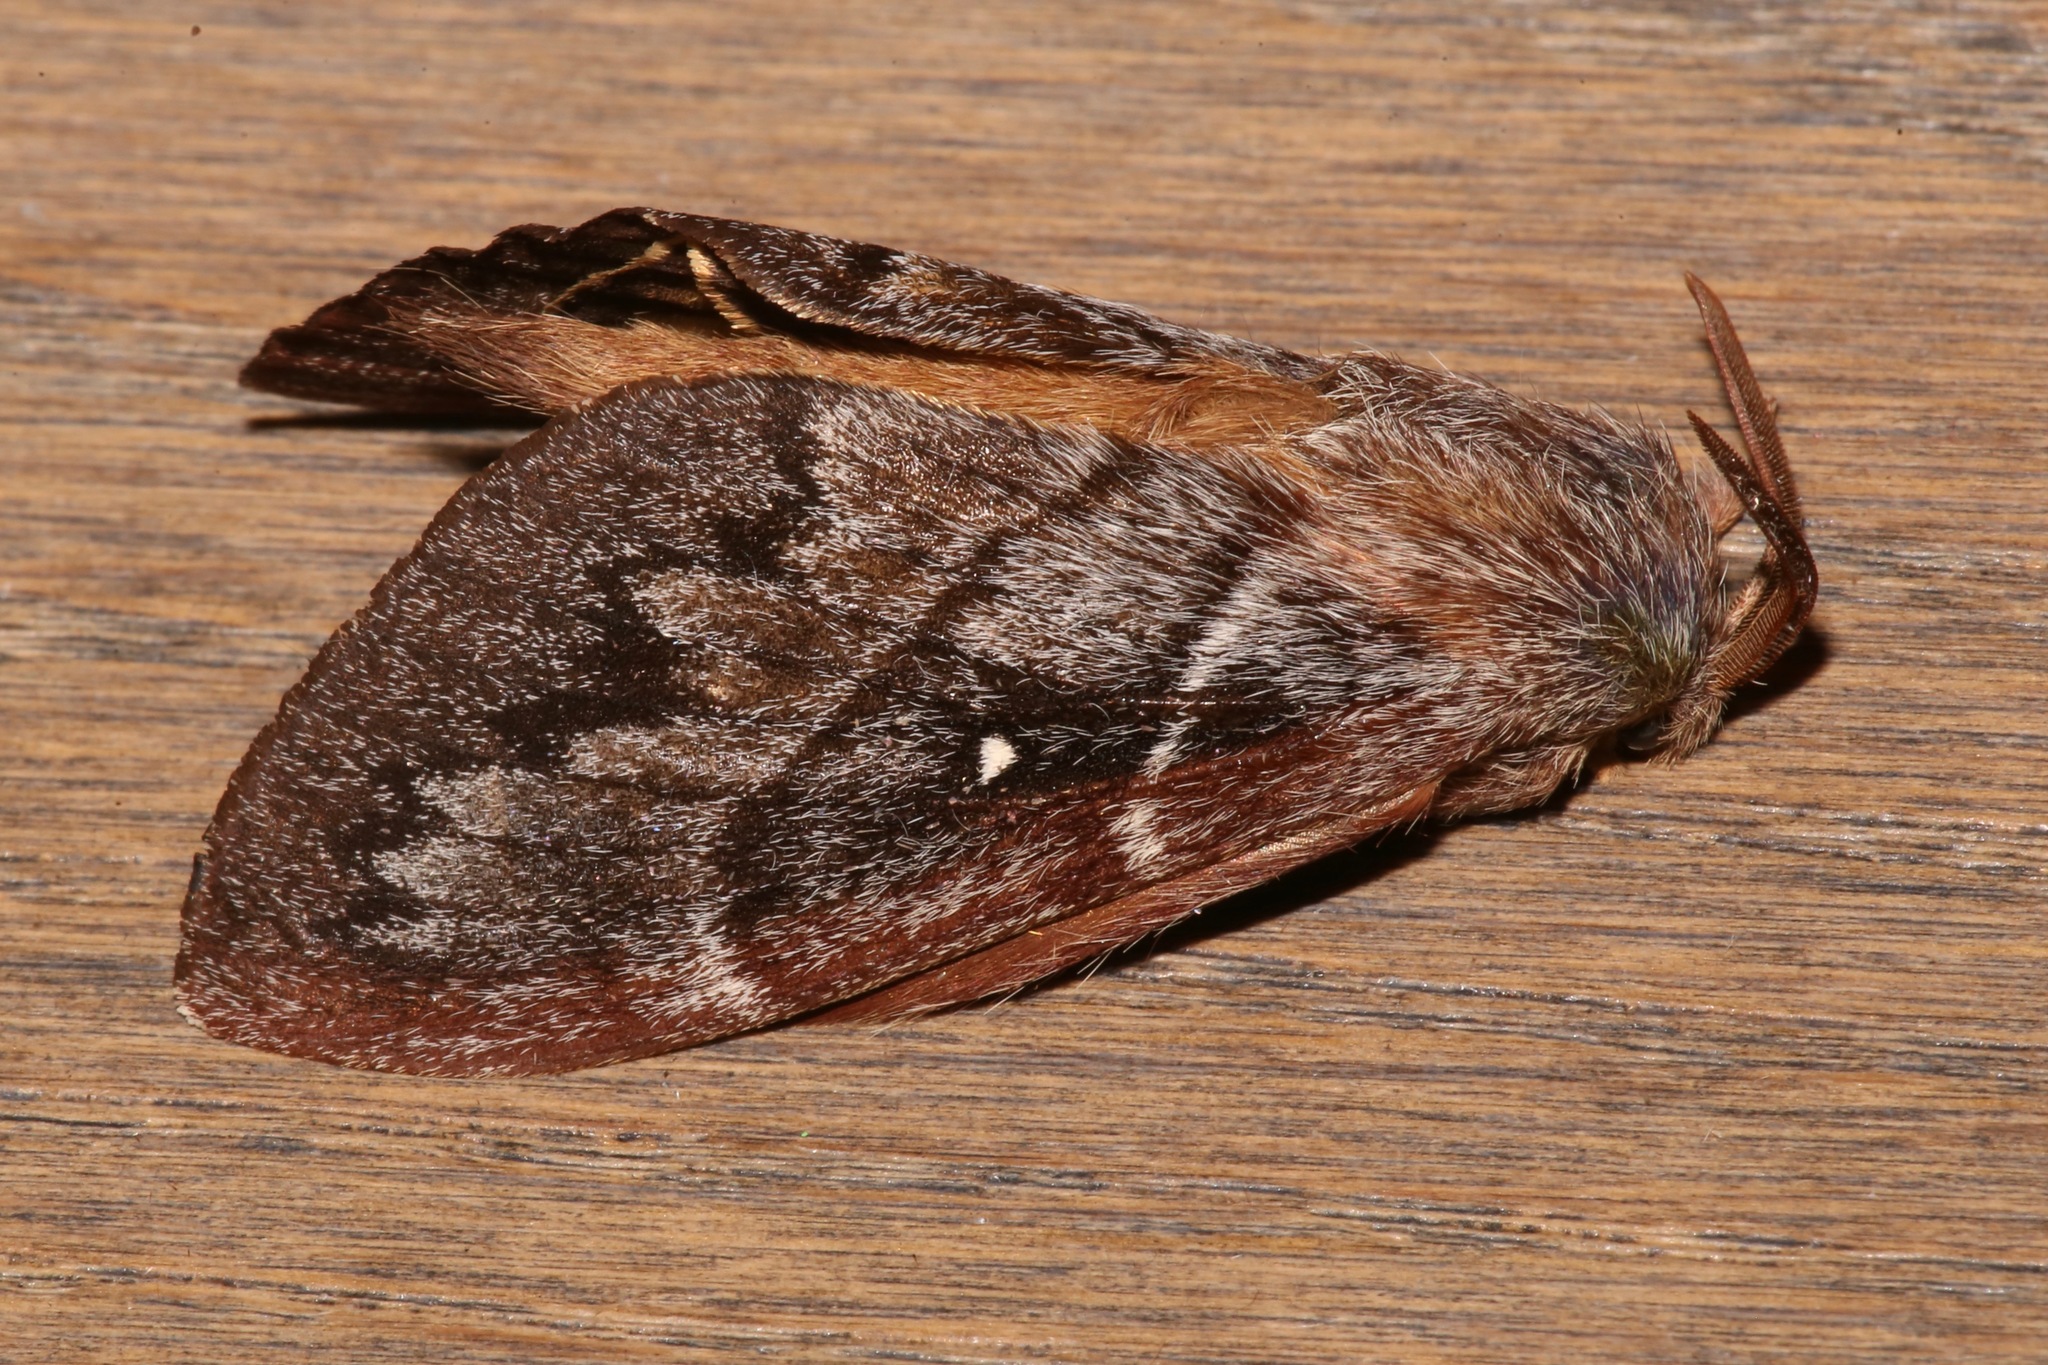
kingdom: Animalia
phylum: Arthropoda
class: Insecta
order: Lepidoptera
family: Lasiocampidae
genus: Gloveria
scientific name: Gloveria arizonensis
